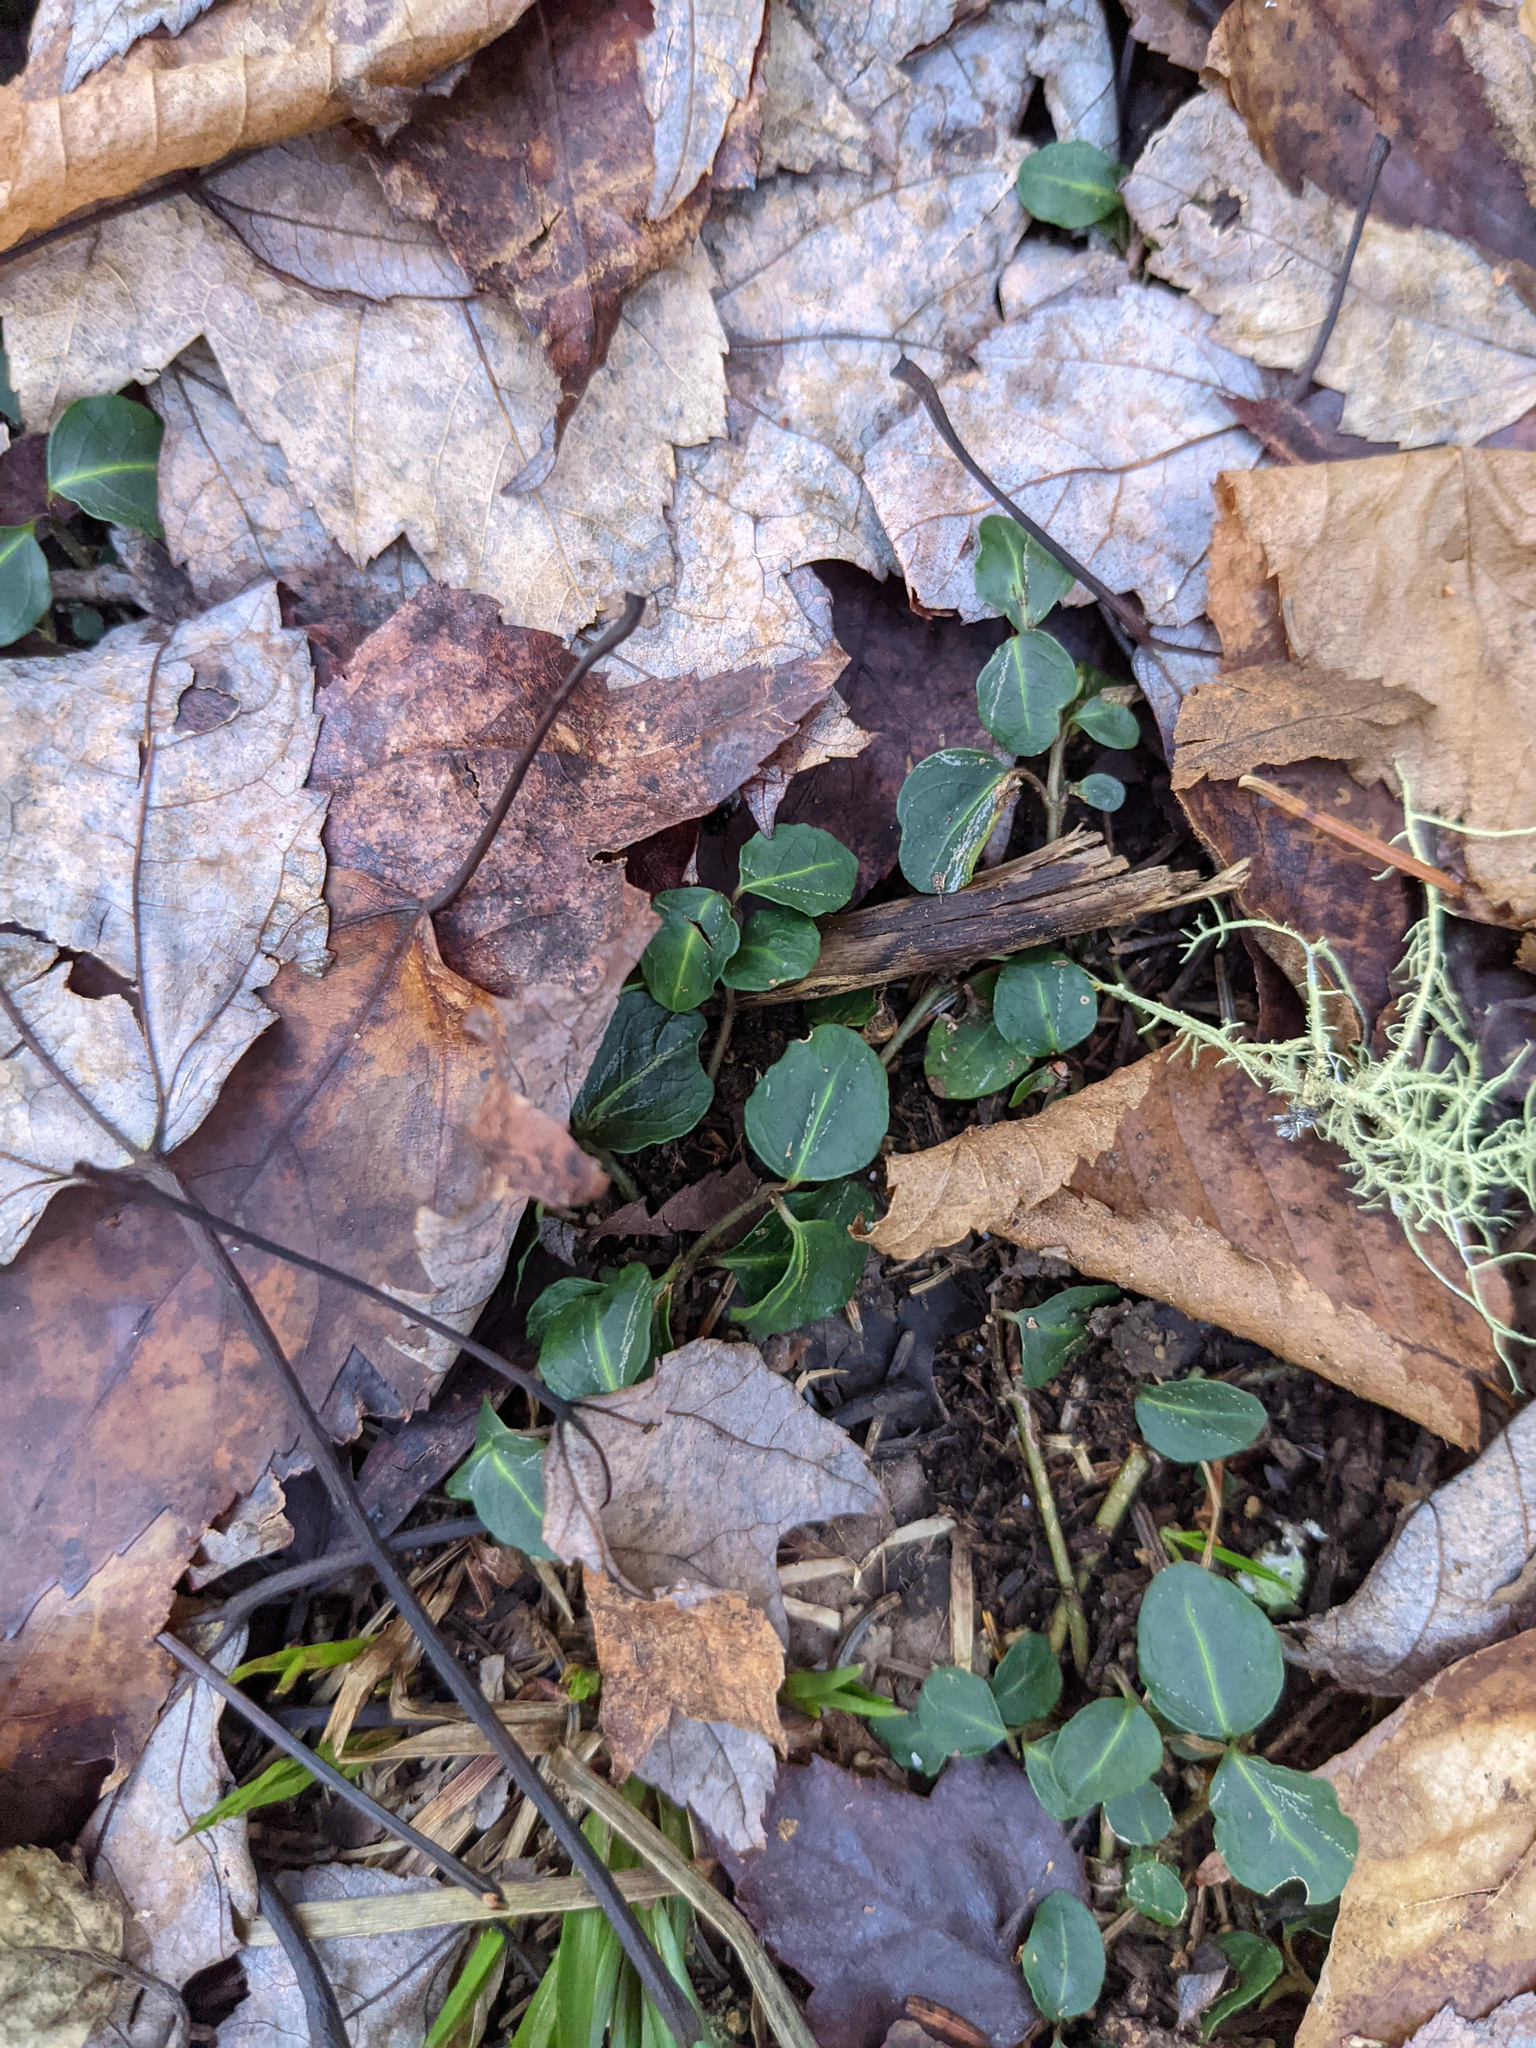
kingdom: Plantae
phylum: Tracheophyta
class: Magnoliopsida
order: Gentianales
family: Rubiaceae
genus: Mitchella
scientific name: Mitchella repens
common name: Partridge-berry
